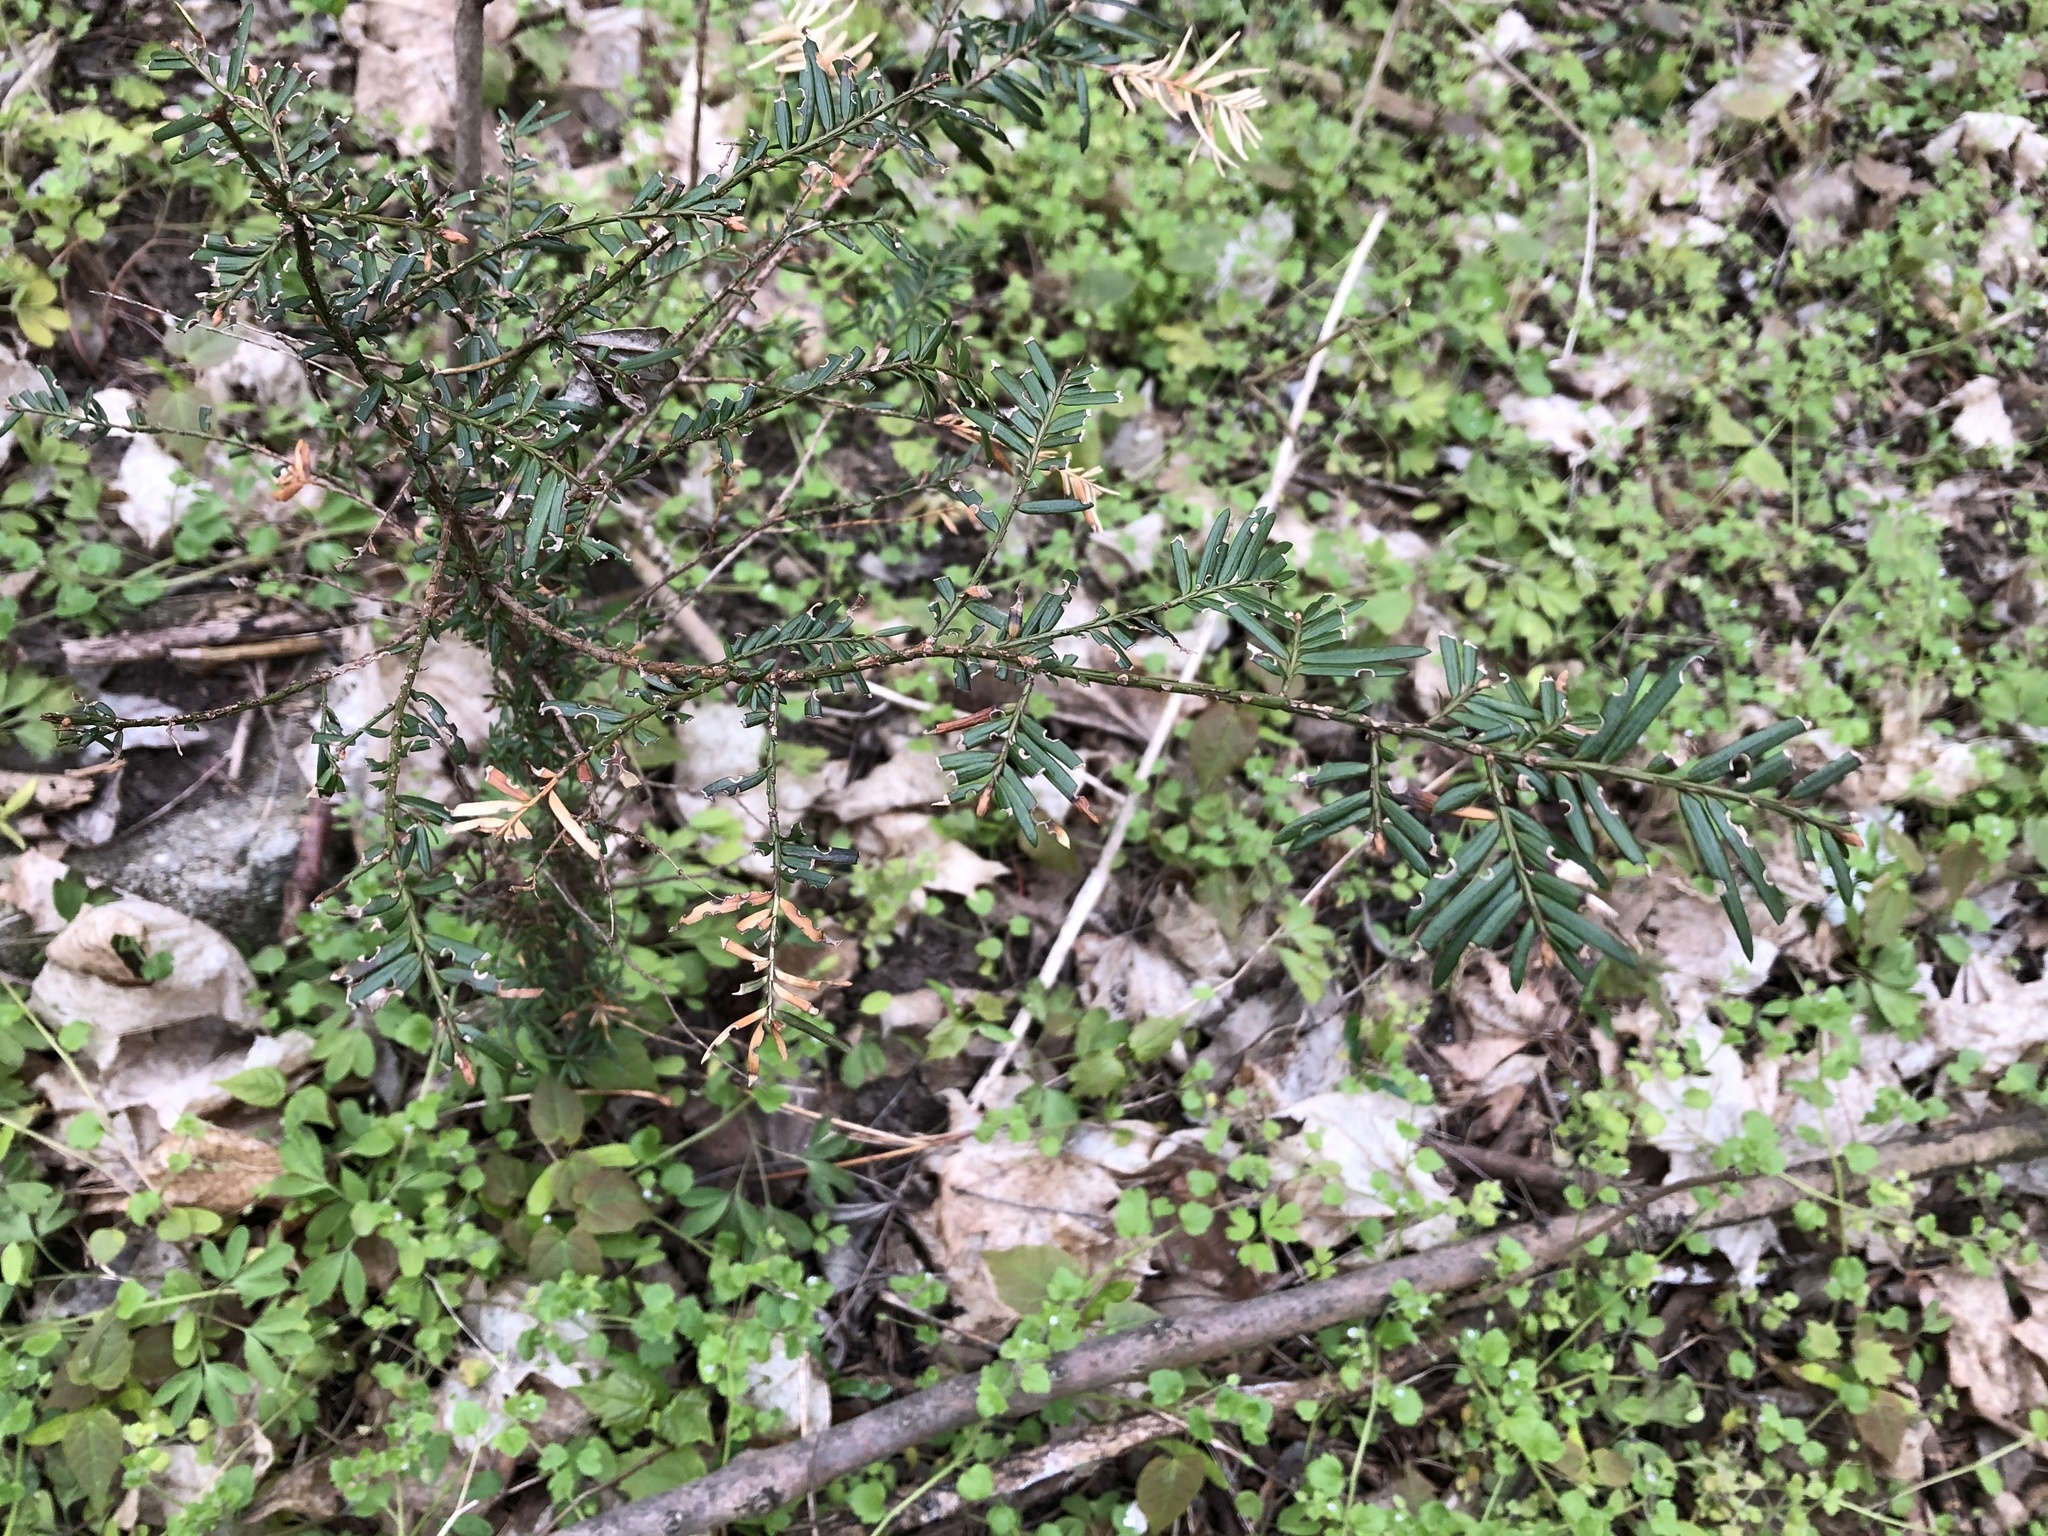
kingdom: Plantae
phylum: Tracheophyta
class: Pinopsida
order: Pinales
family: Taxaceae
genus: Taxus
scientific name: Taxus baccata
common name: Yew
